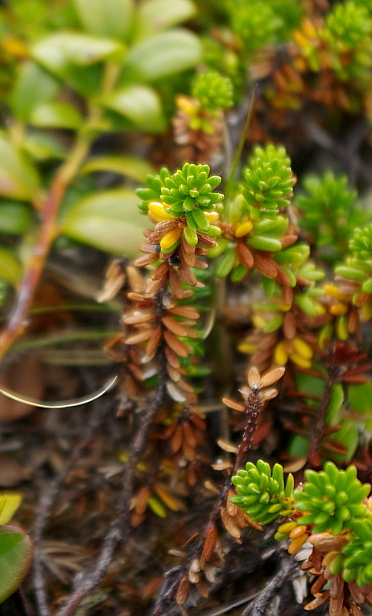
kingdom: Plantae
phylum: Tracheophyta
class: Magnoliopsida
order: Ericales
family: Ericaceae
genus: Empetrum
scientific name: Empetrum nigrum
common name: Black crowberry
